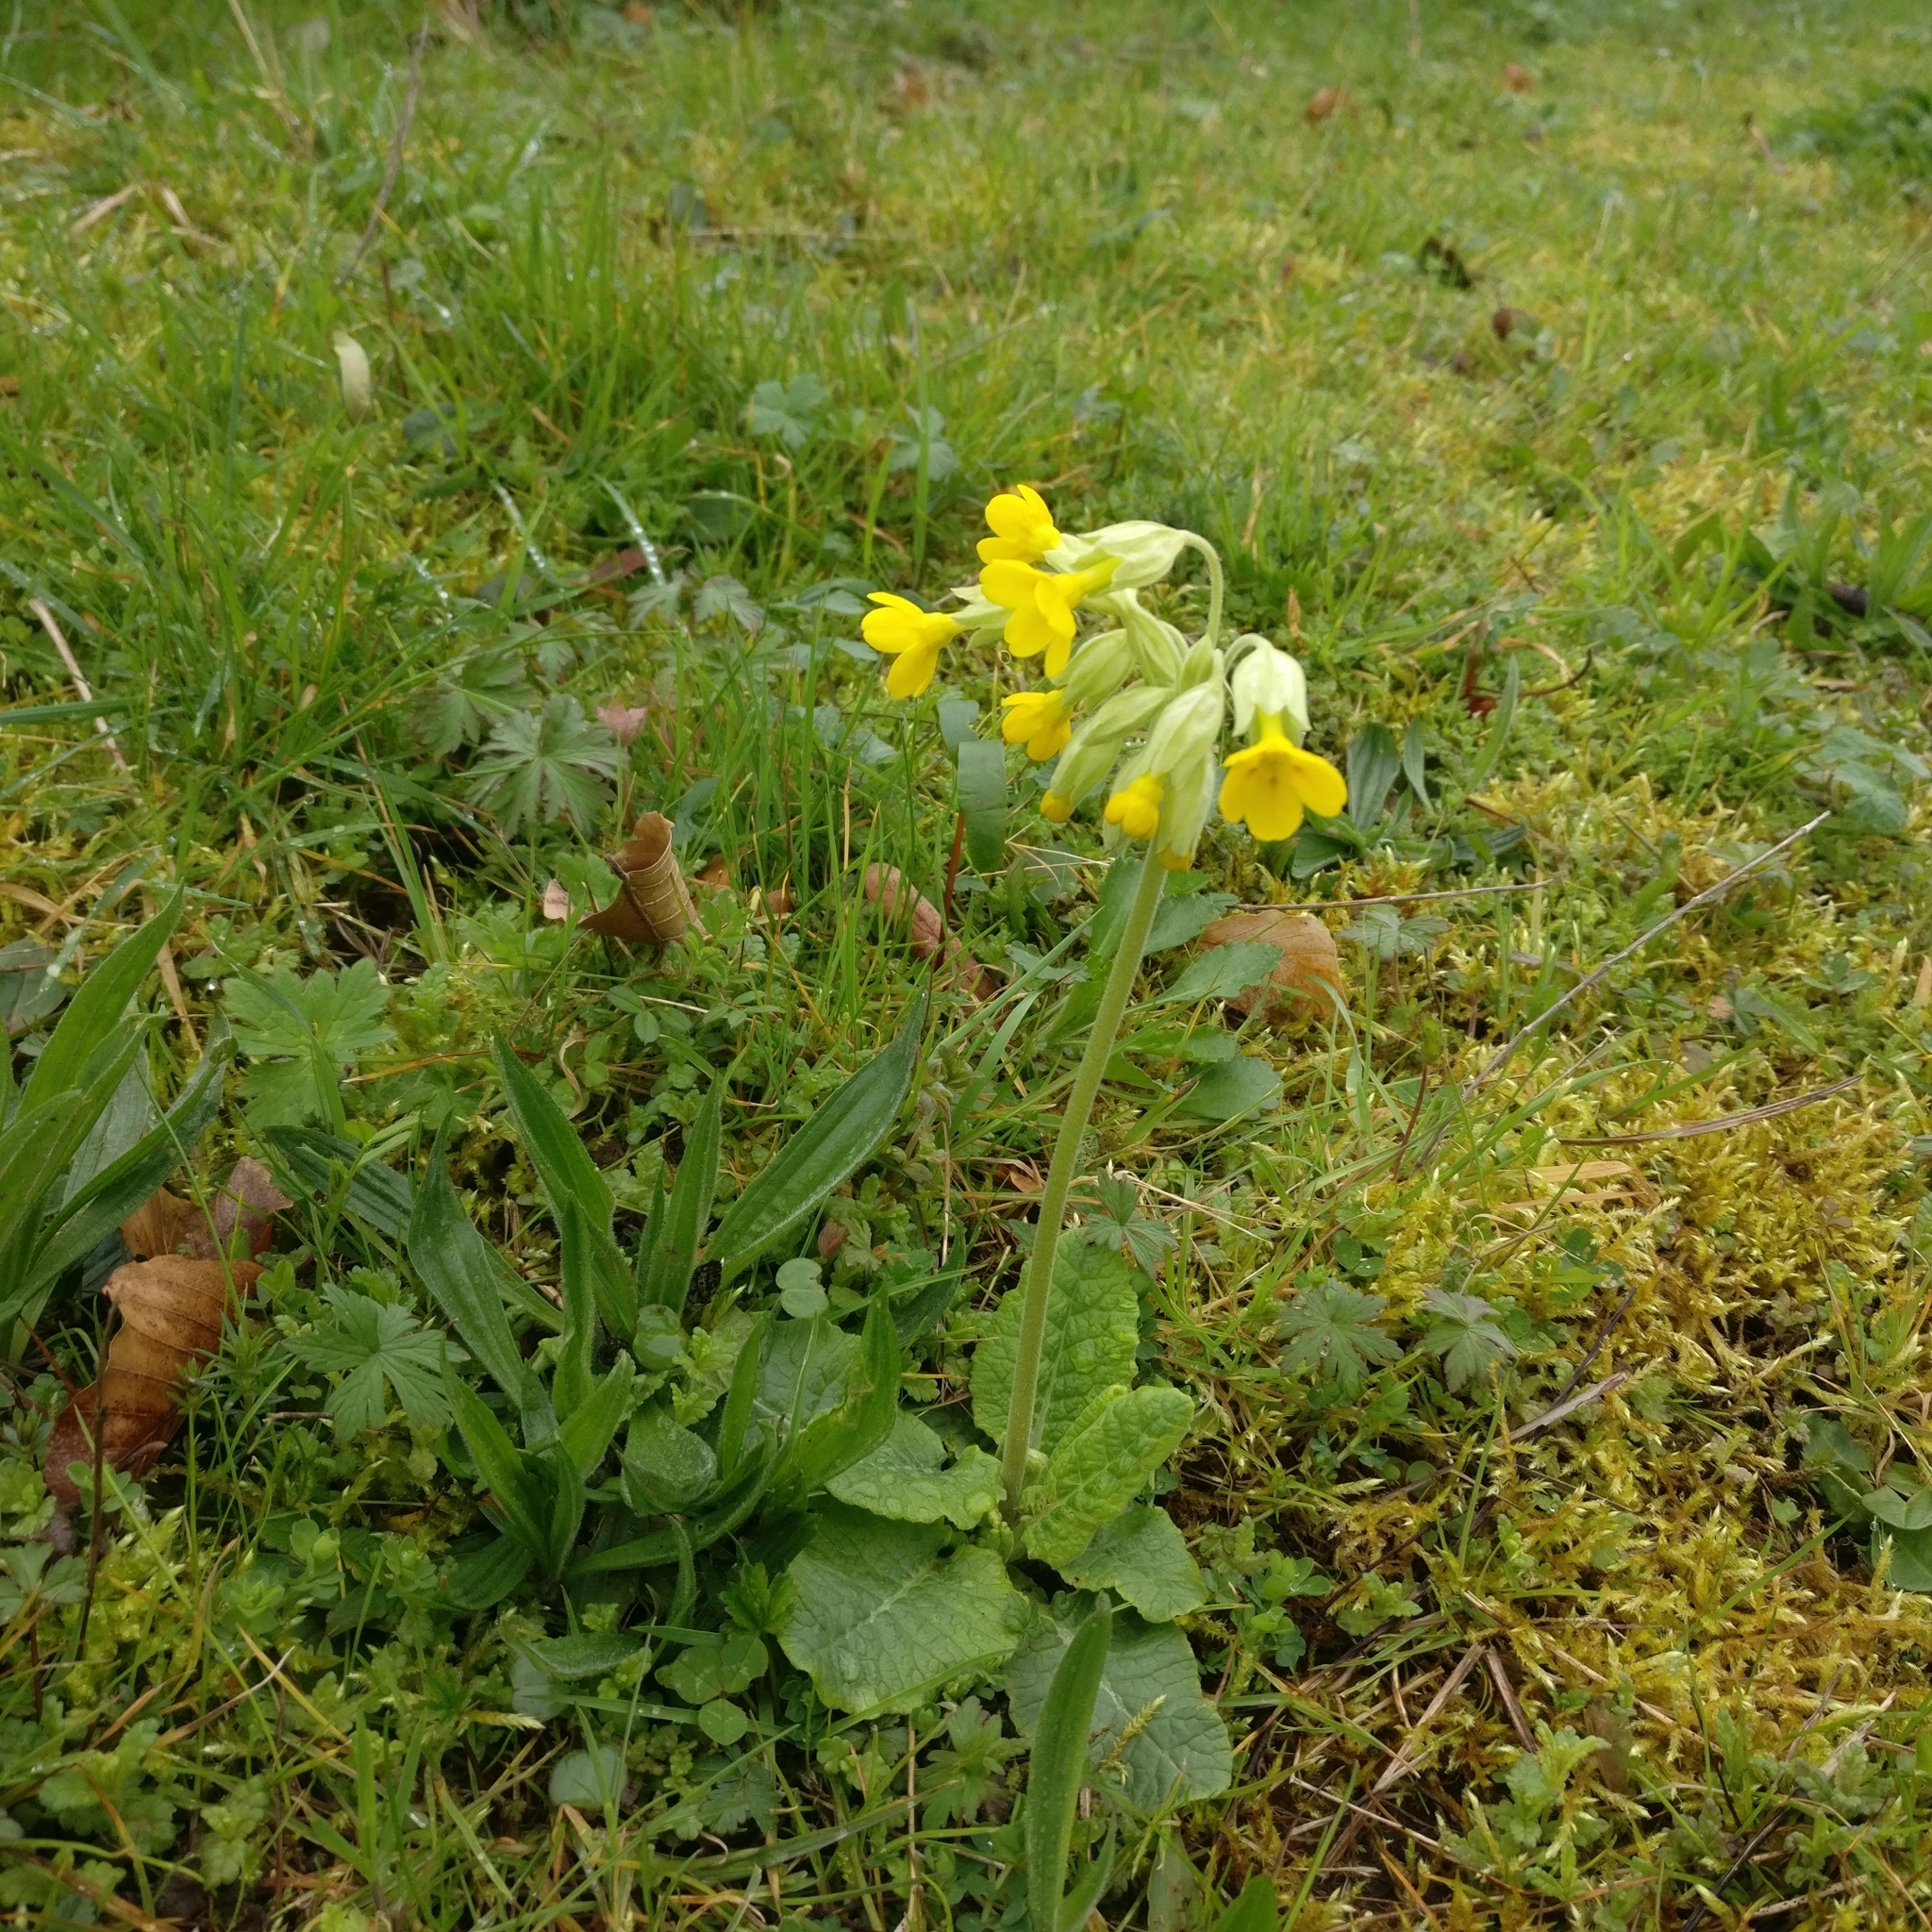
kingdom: Plantae
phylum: Tracheophyta
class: Magnoliopsida
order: Ericales
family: Primulaceae
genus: Primula
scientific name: Primula veris
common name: Cowslip
